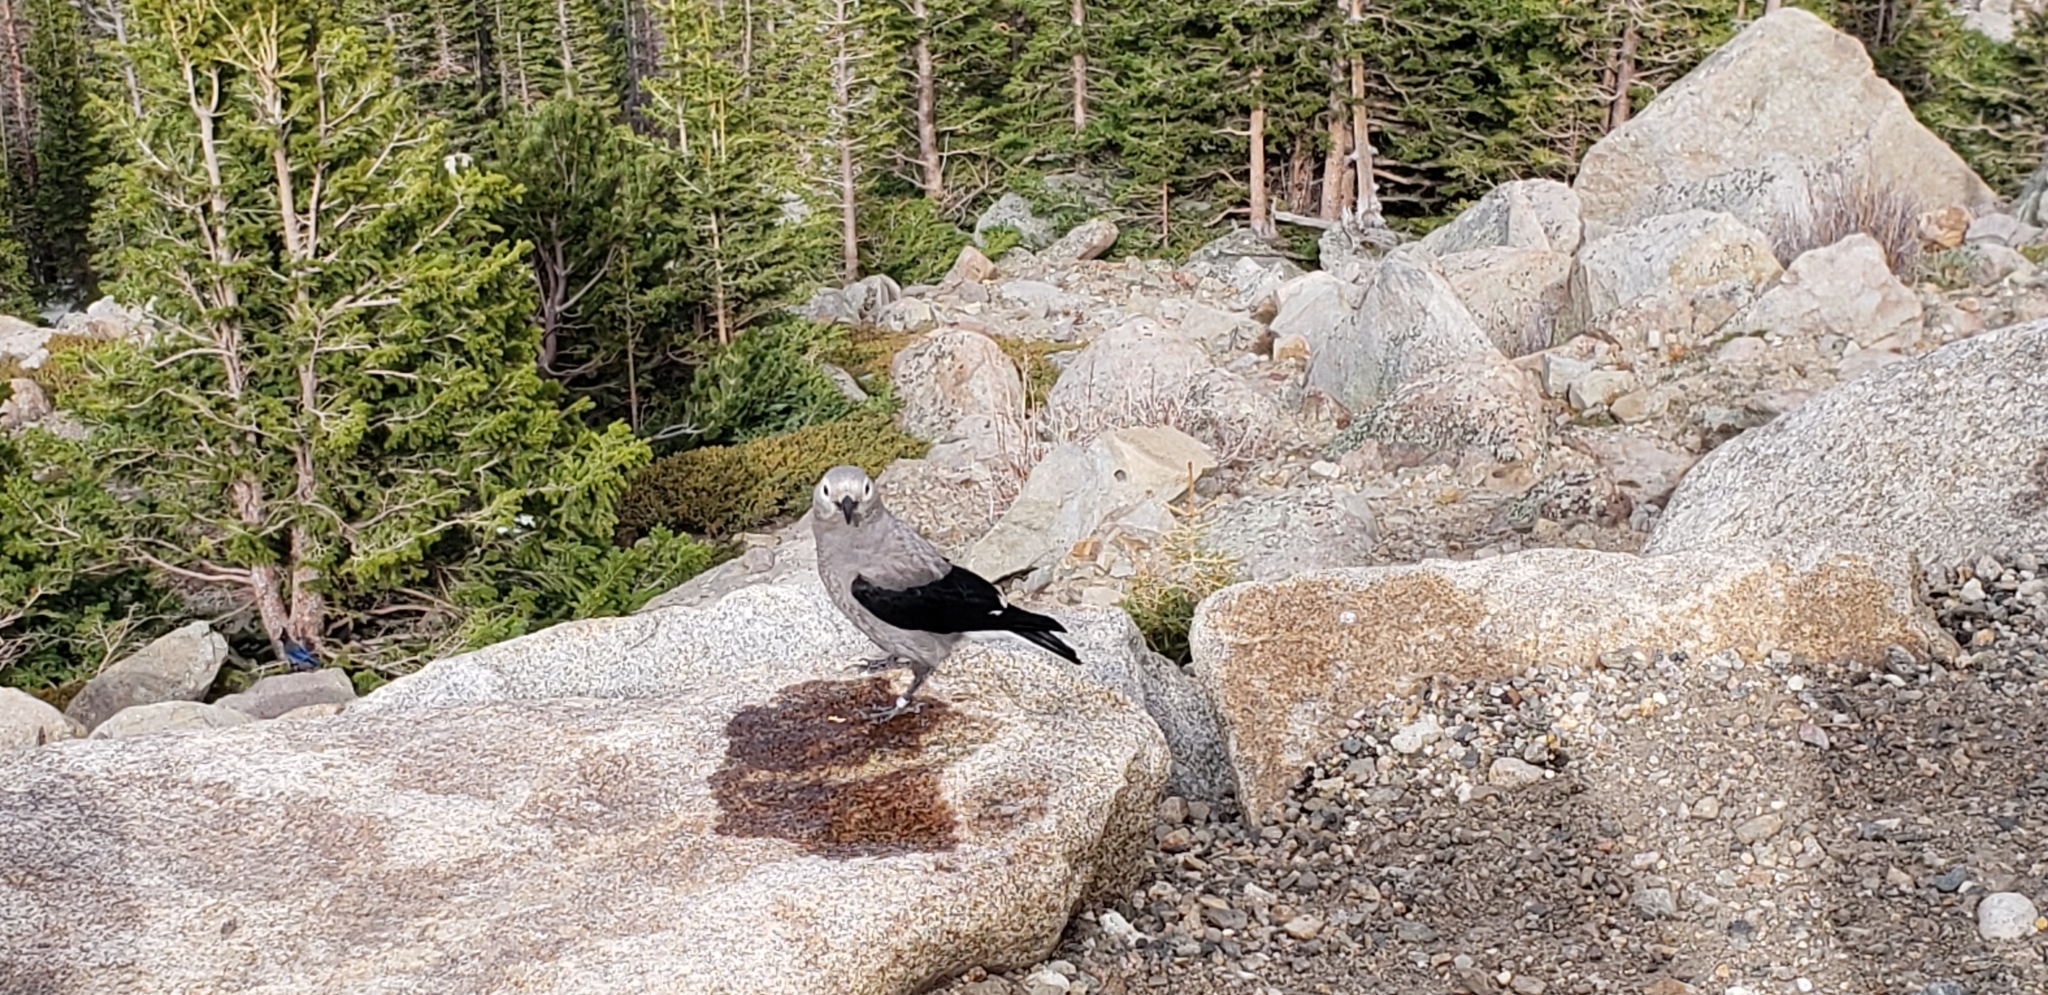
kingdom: Animalia
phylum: Chordata
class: Aves
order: Passeriformes
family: Corvidae
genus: Nucifraga
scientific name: Nucifraga columbiana
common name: Clark's nutcracker
